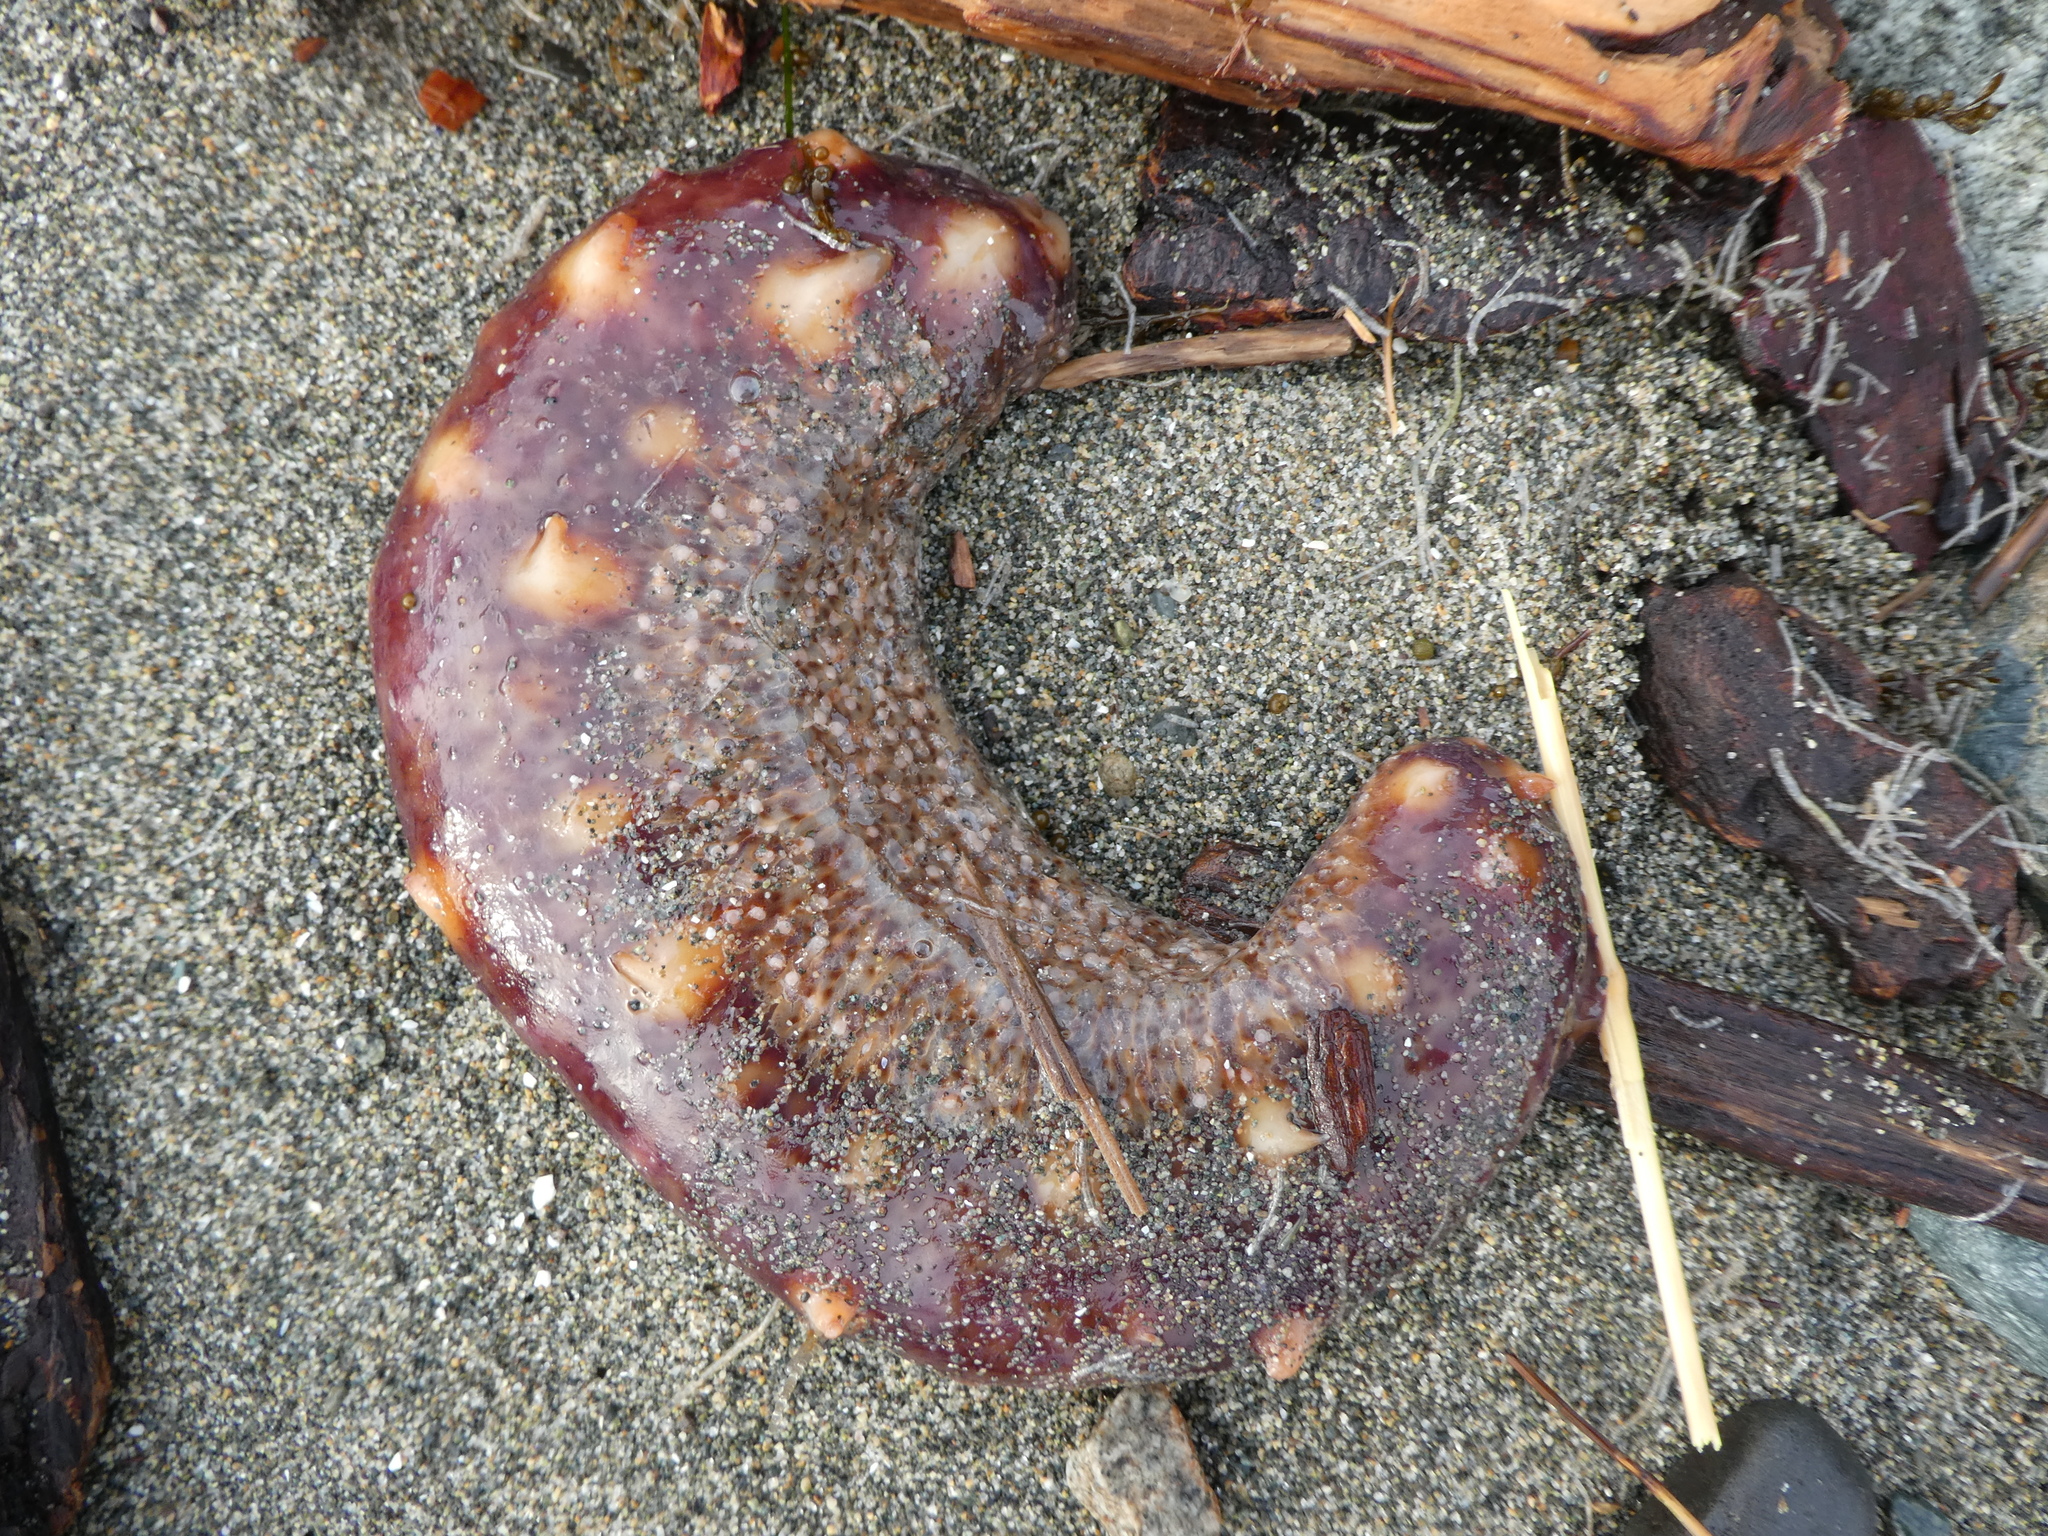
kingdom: Animalia
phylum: Echinodermata
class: Holothuroidea
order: Synallactida
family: Stichopodidae
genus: Apostichopus
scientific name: Apostichopus californicus
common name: California sea cucumber
